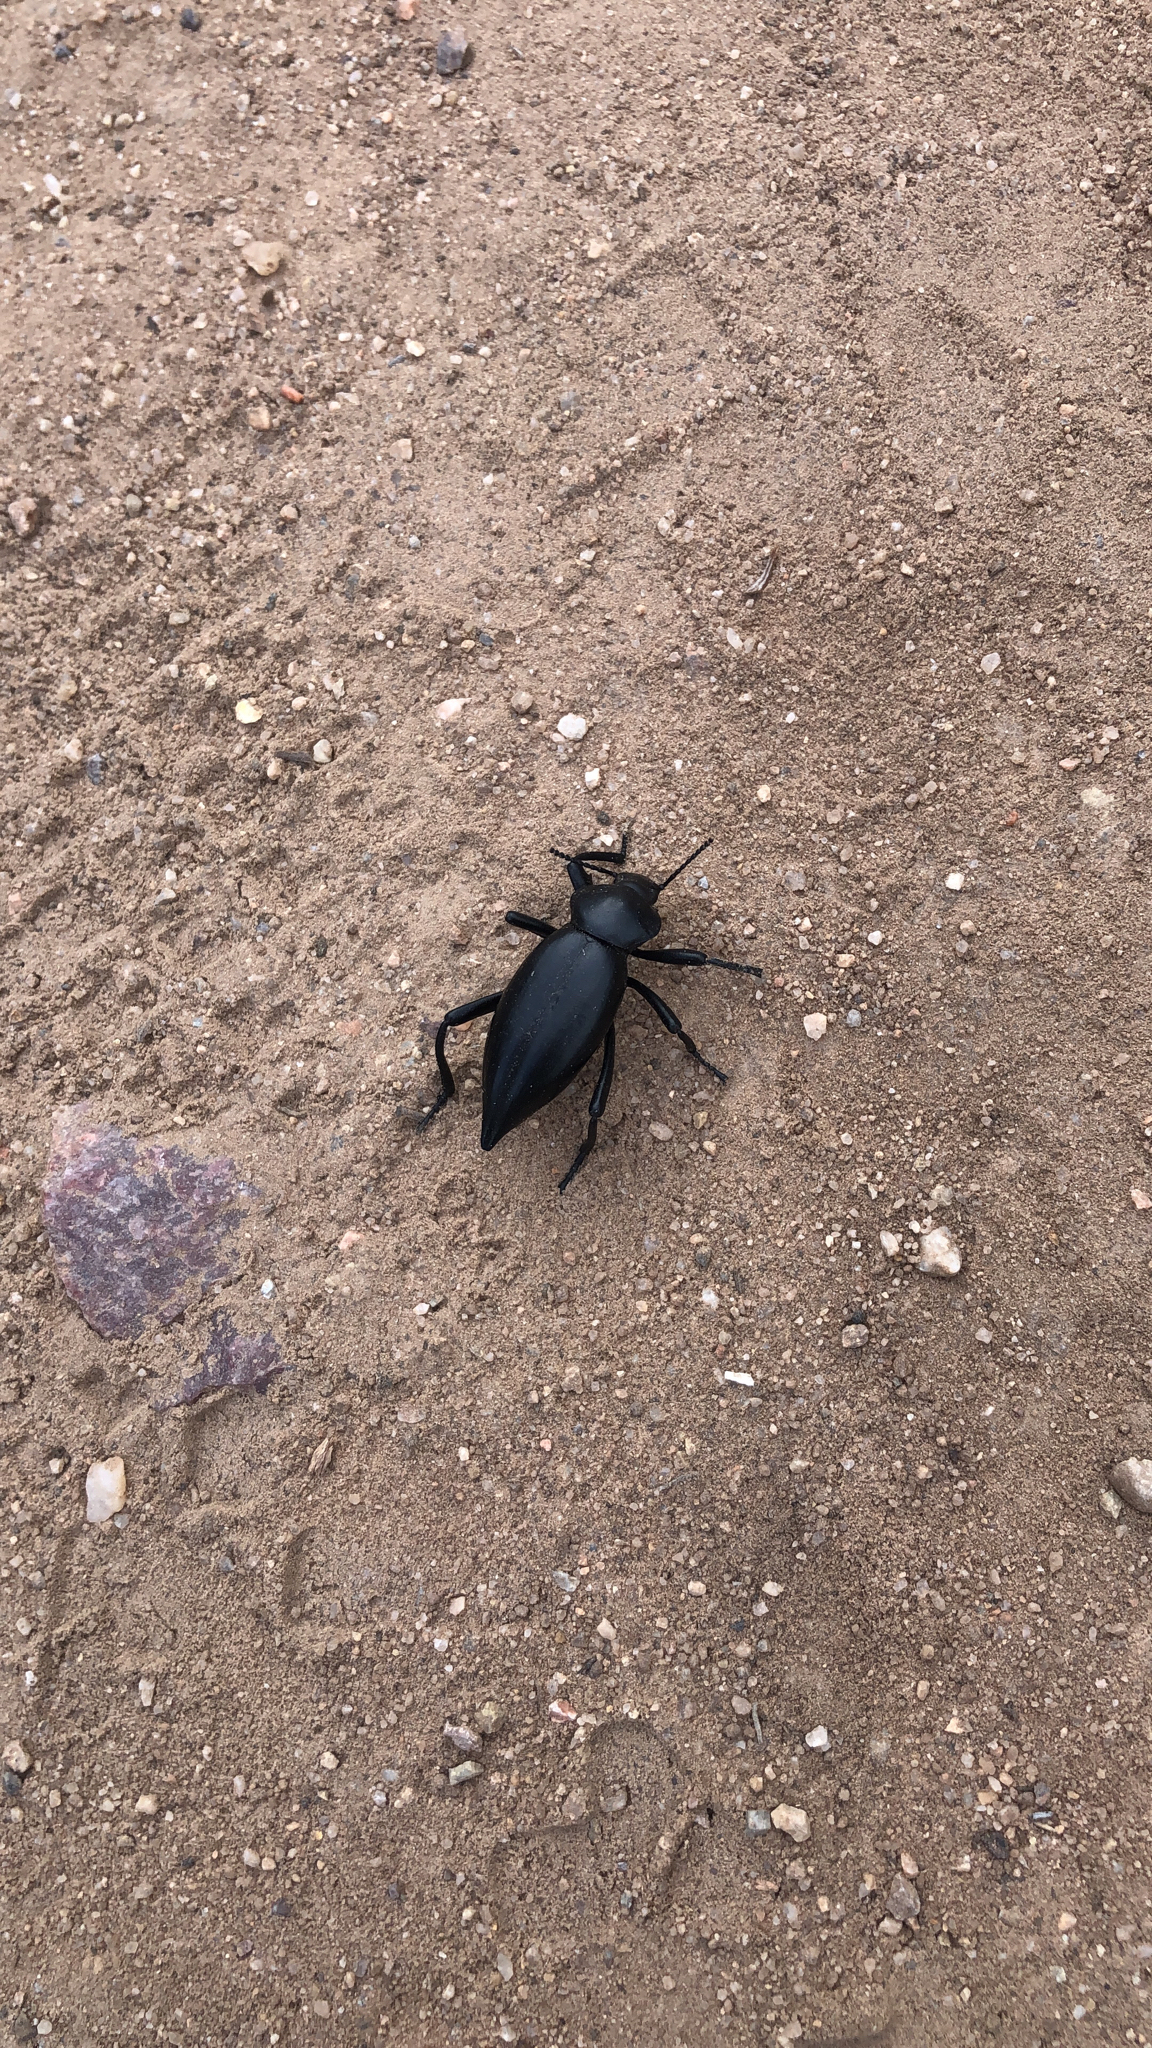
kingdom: Animalia
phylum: Arthropoda
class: Insecta
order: Coleoptera
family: Tenebrionidae
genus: Eleodes
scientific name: Eleodes acuticauda
